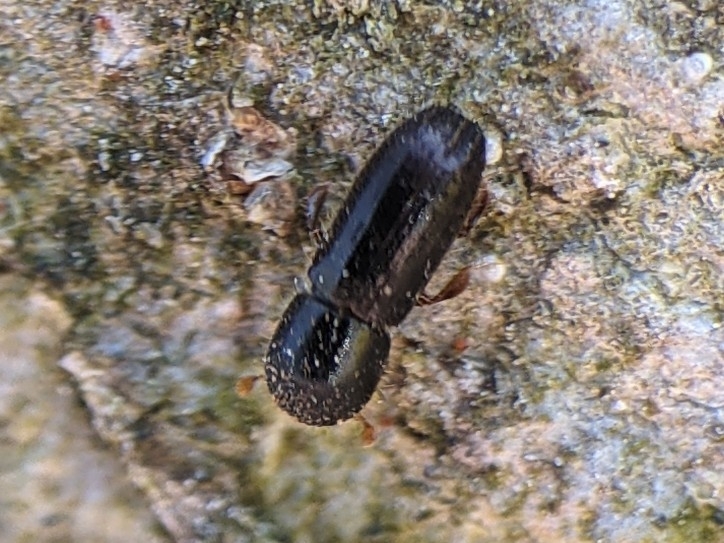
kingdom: Animalia
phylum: Arthropoda
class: Insecta
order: Coleoptera
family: Curculionidae
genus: Xyleborinus
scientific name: Xyleborinus attenuatus
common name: Asian ambrosia beetle
